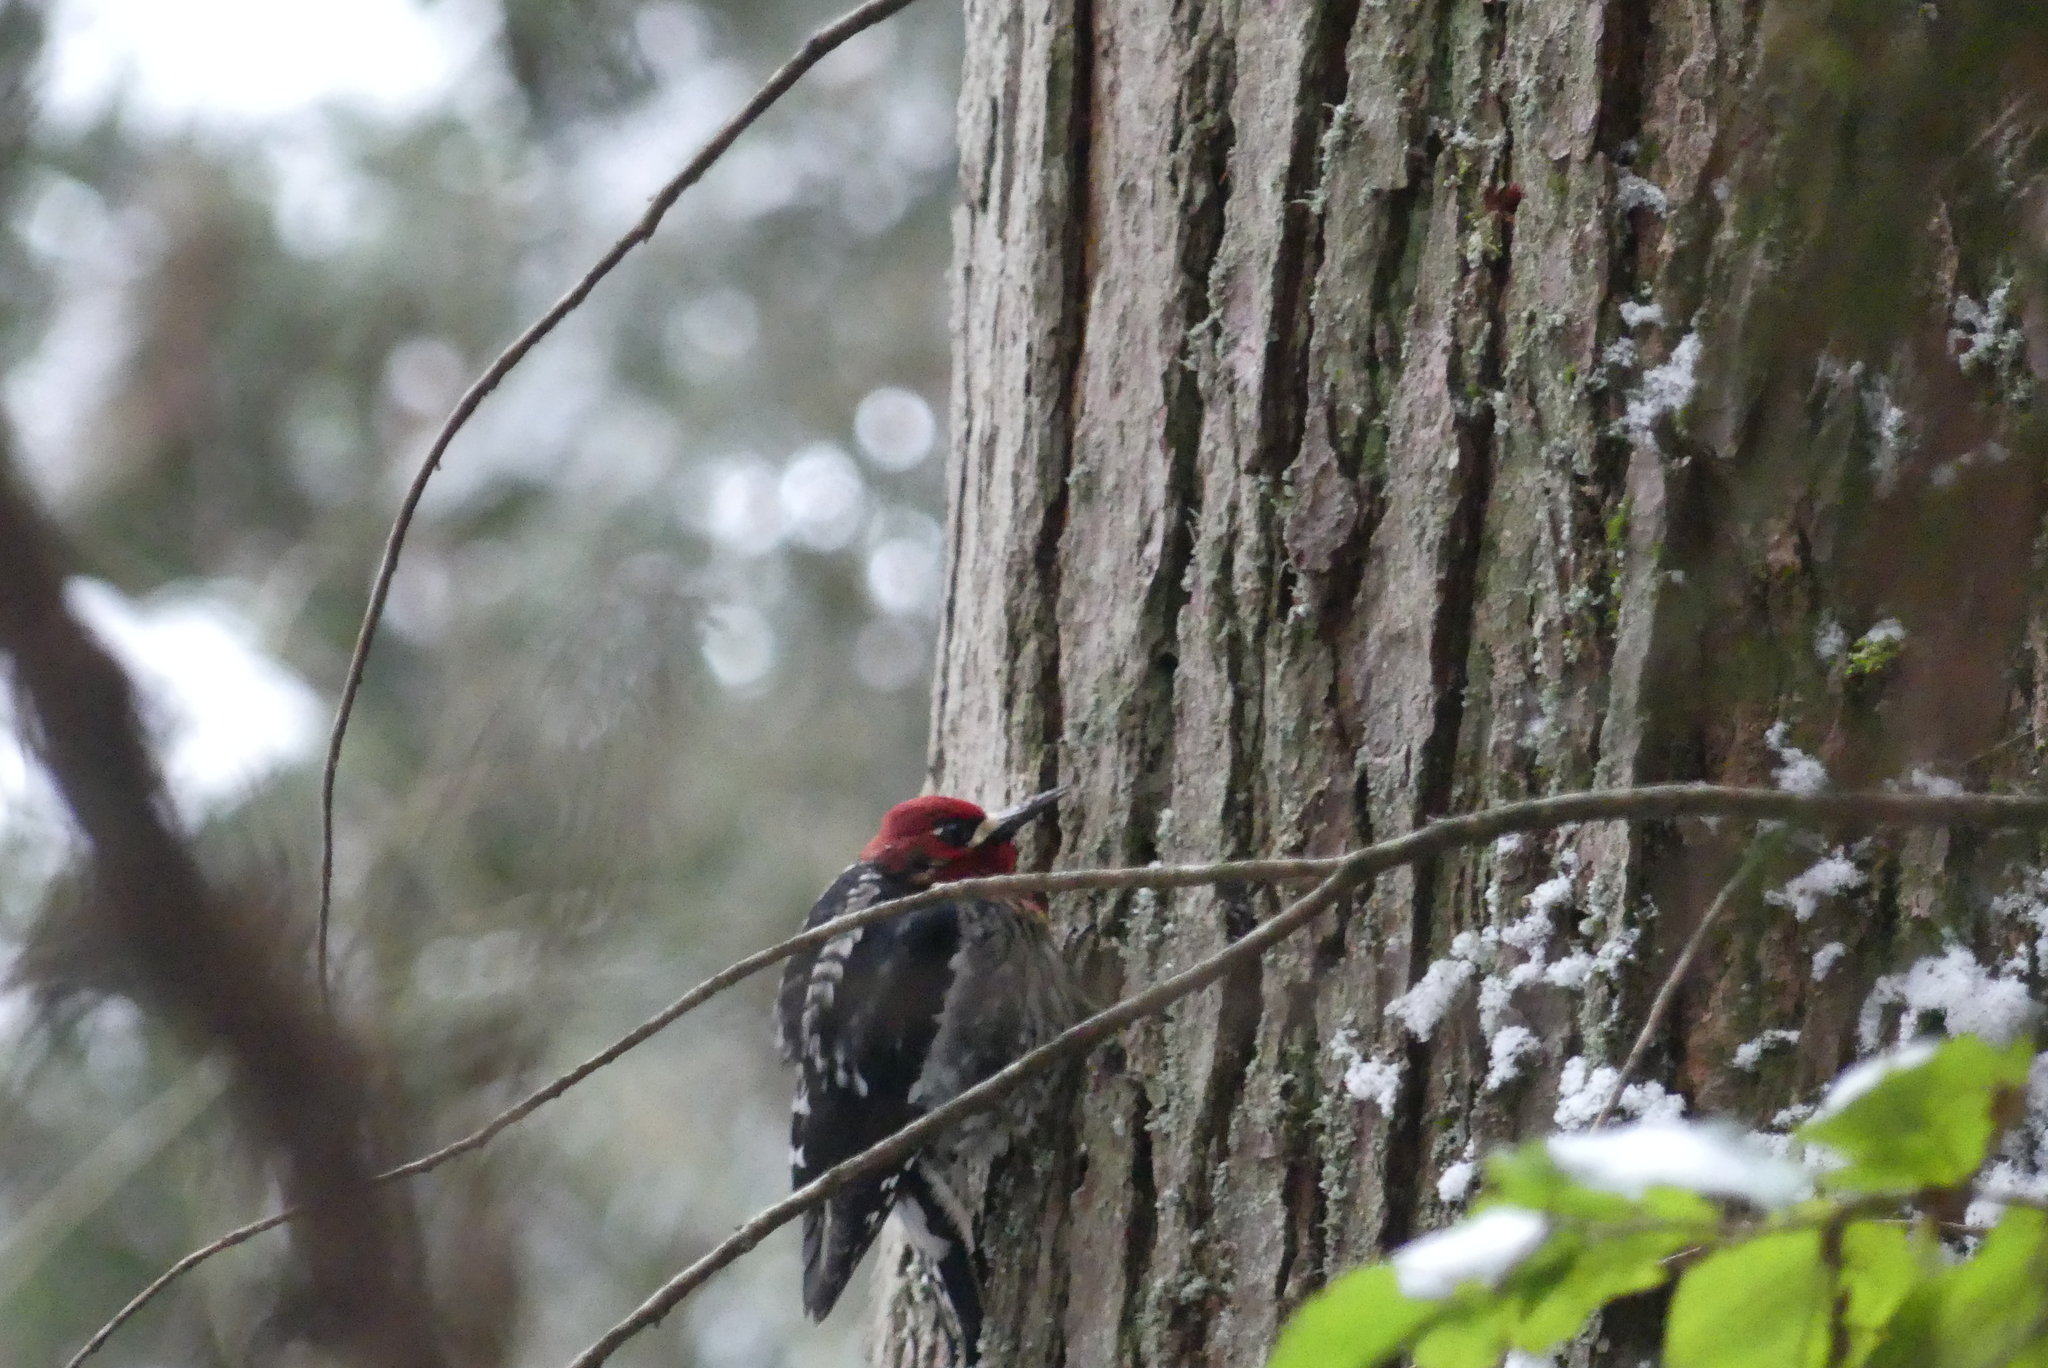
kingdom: Animalia
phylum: Chordata
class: Aves
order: Piciformes
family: Picidae
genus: Sphyrapicus
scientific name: Sphyrapicus ruber
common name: Red-breasted sapsucker
